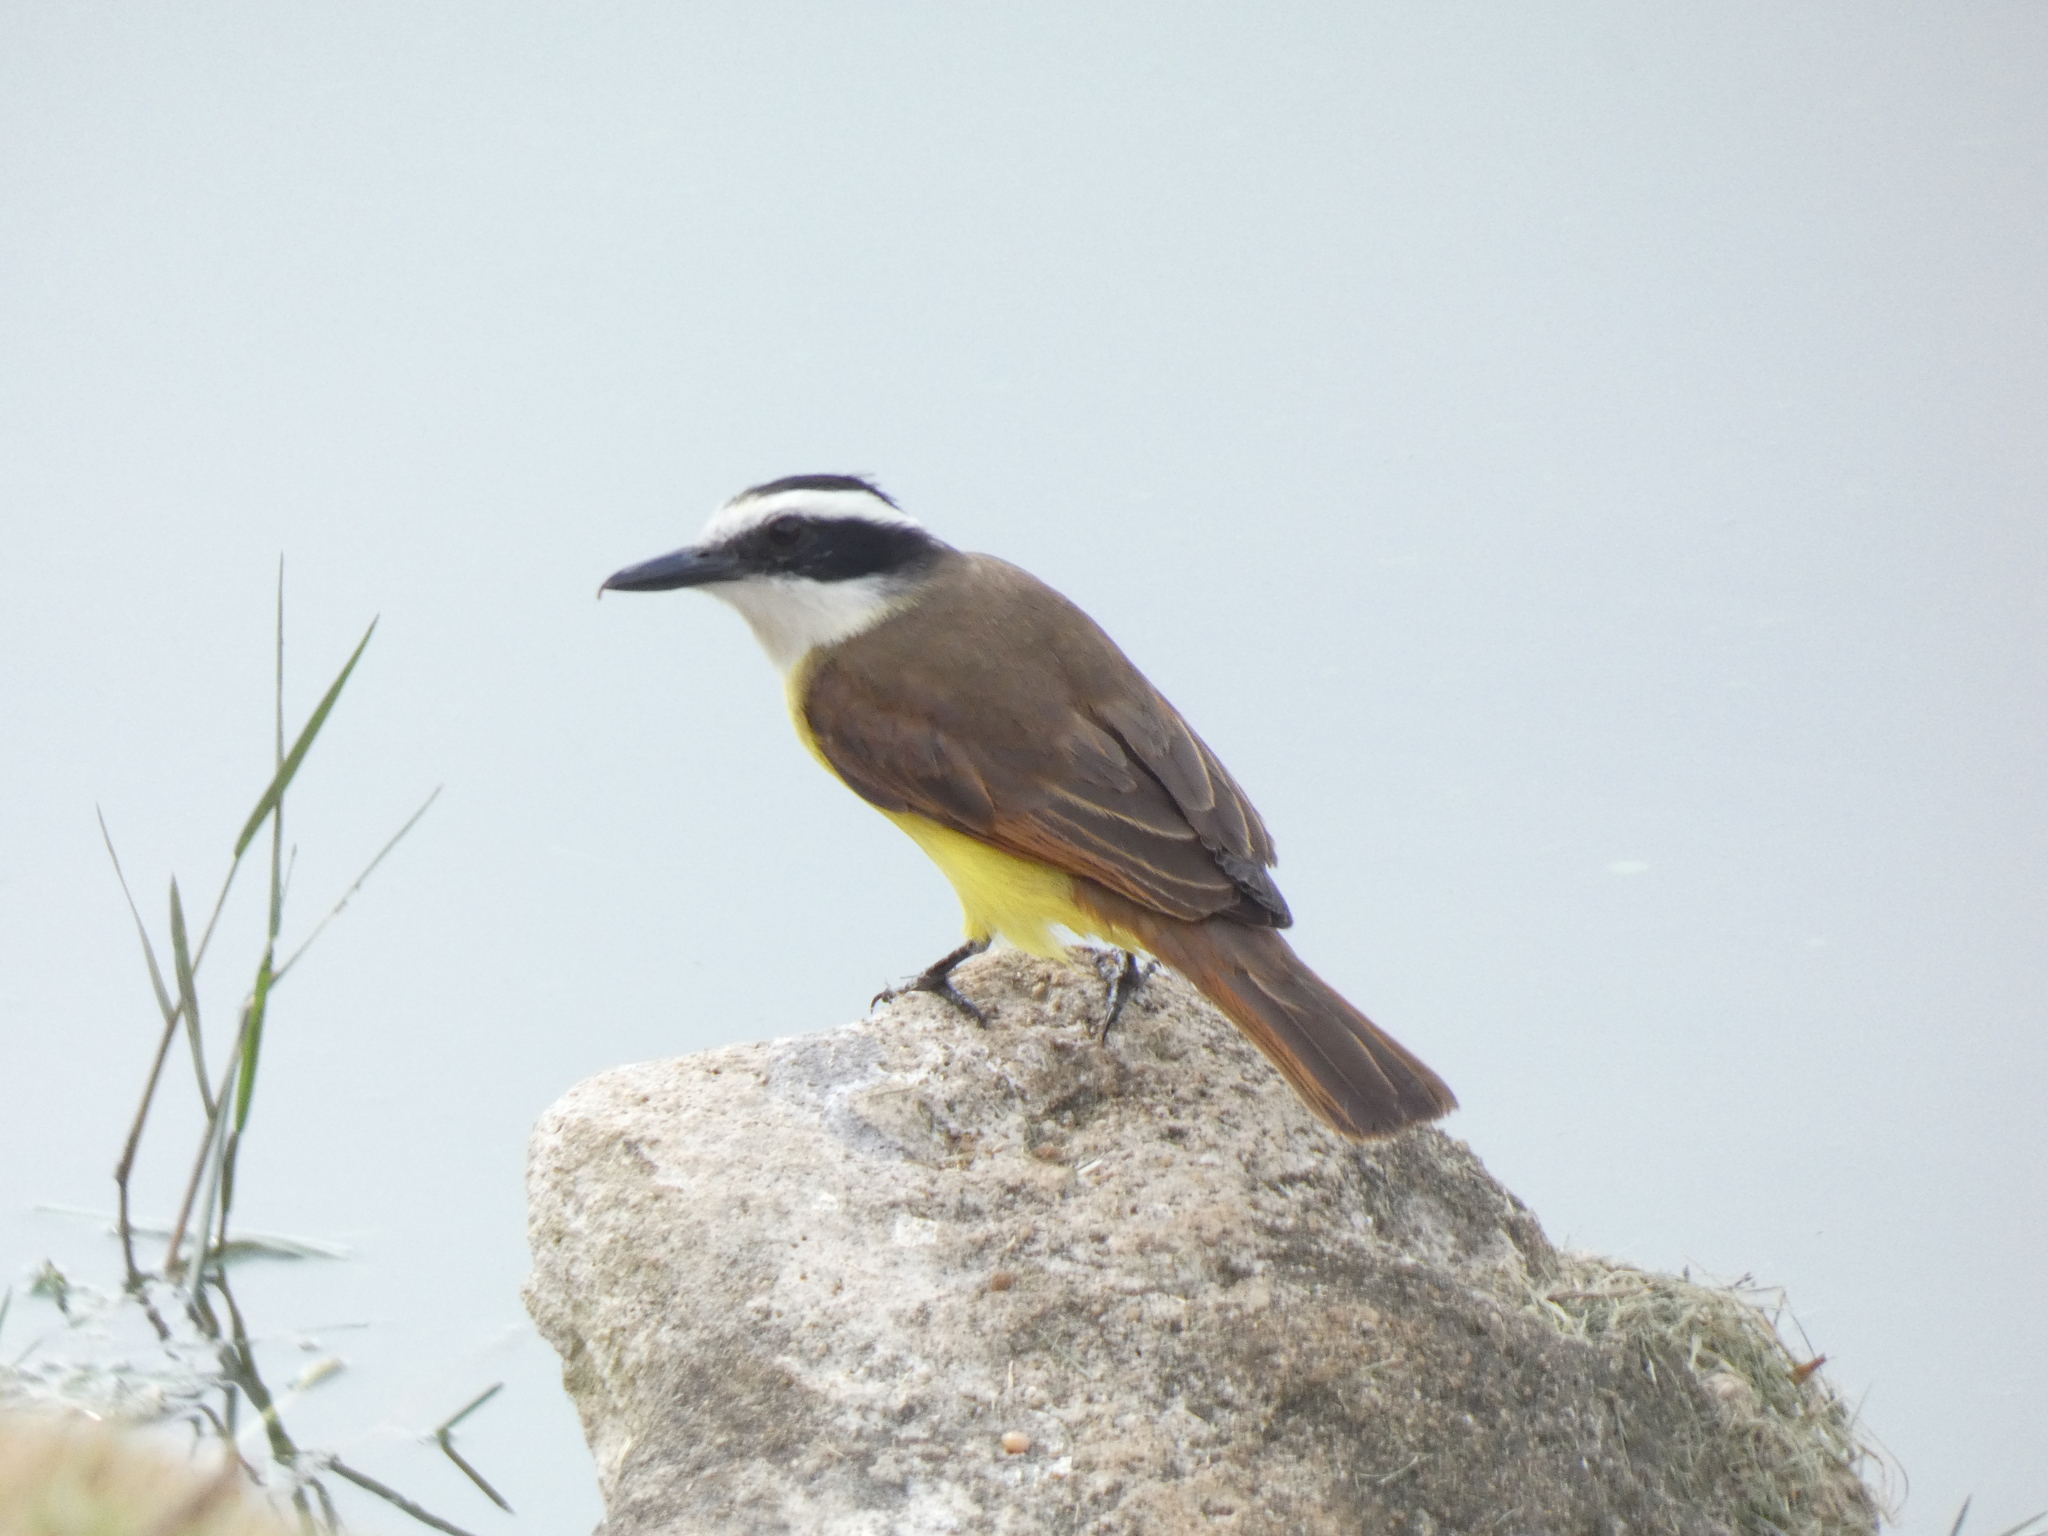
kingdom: Animalia
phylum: Chordata
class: Aves
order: Passeriformes
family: Tyrannidae
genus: Pitangus
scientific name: Pitangus sulphuratus
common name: Great kiskadee
